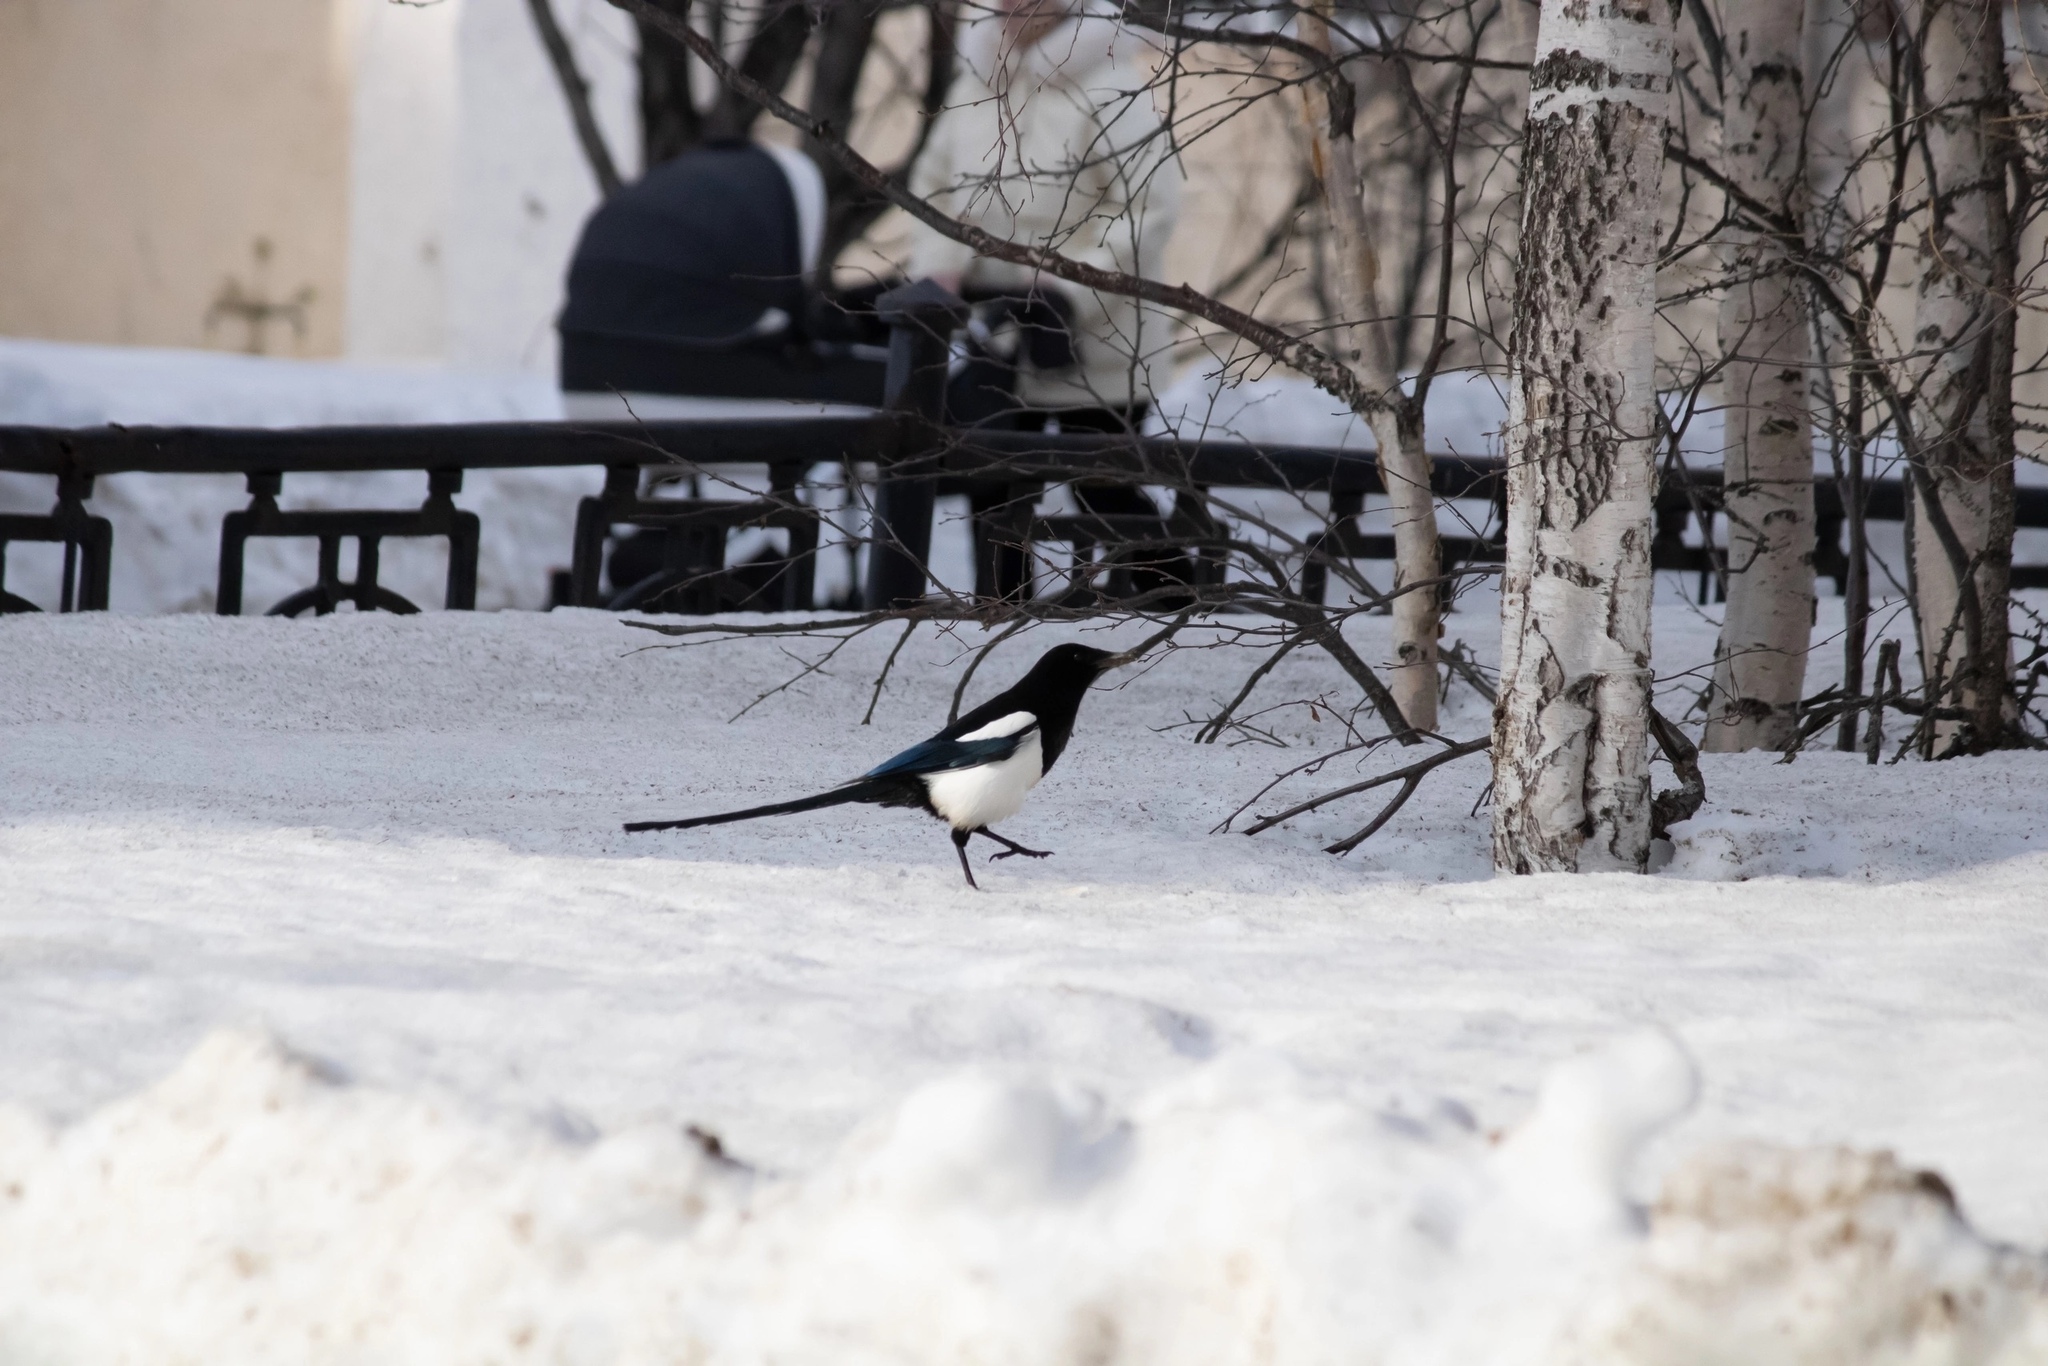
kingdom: Animalia
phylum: Chordata
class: Aves
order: Passeriformes
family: Corvidae
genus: Pica
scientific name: Pica pica
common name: Eurasian magpie
